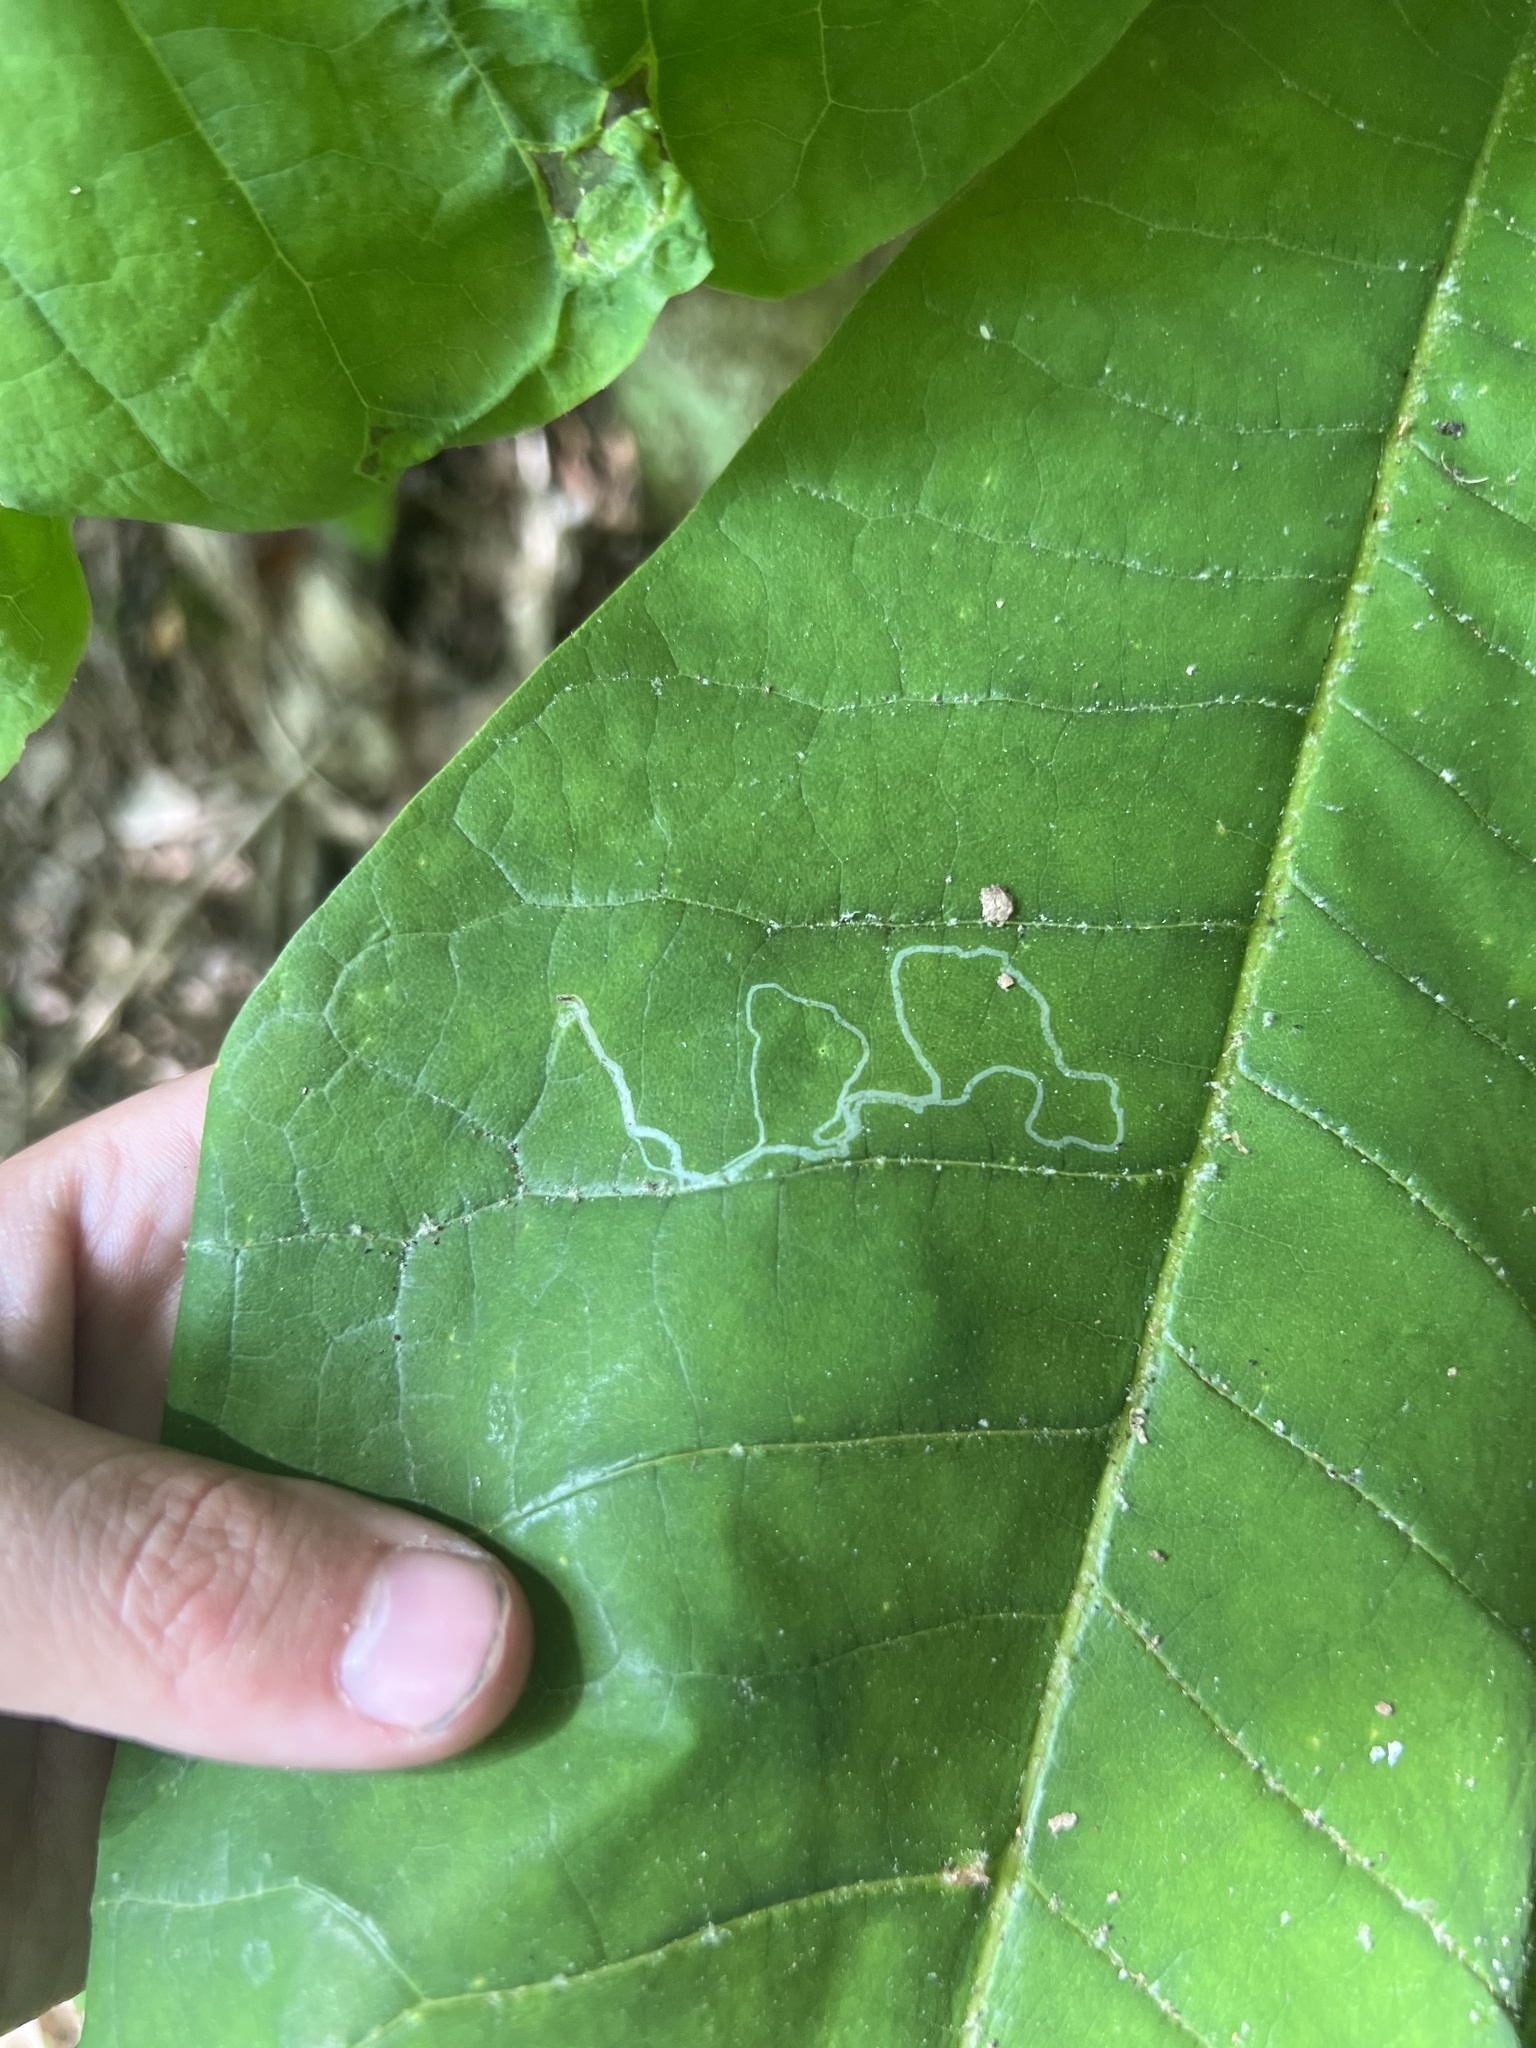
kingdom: Animalia
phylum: Arthropoda
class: Insecta
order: Lepidoptera
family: Gracillariidae
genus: Phyllocnistis
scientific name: Phyllocnistis liriodendronella
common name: Tulip tree leaf miner
